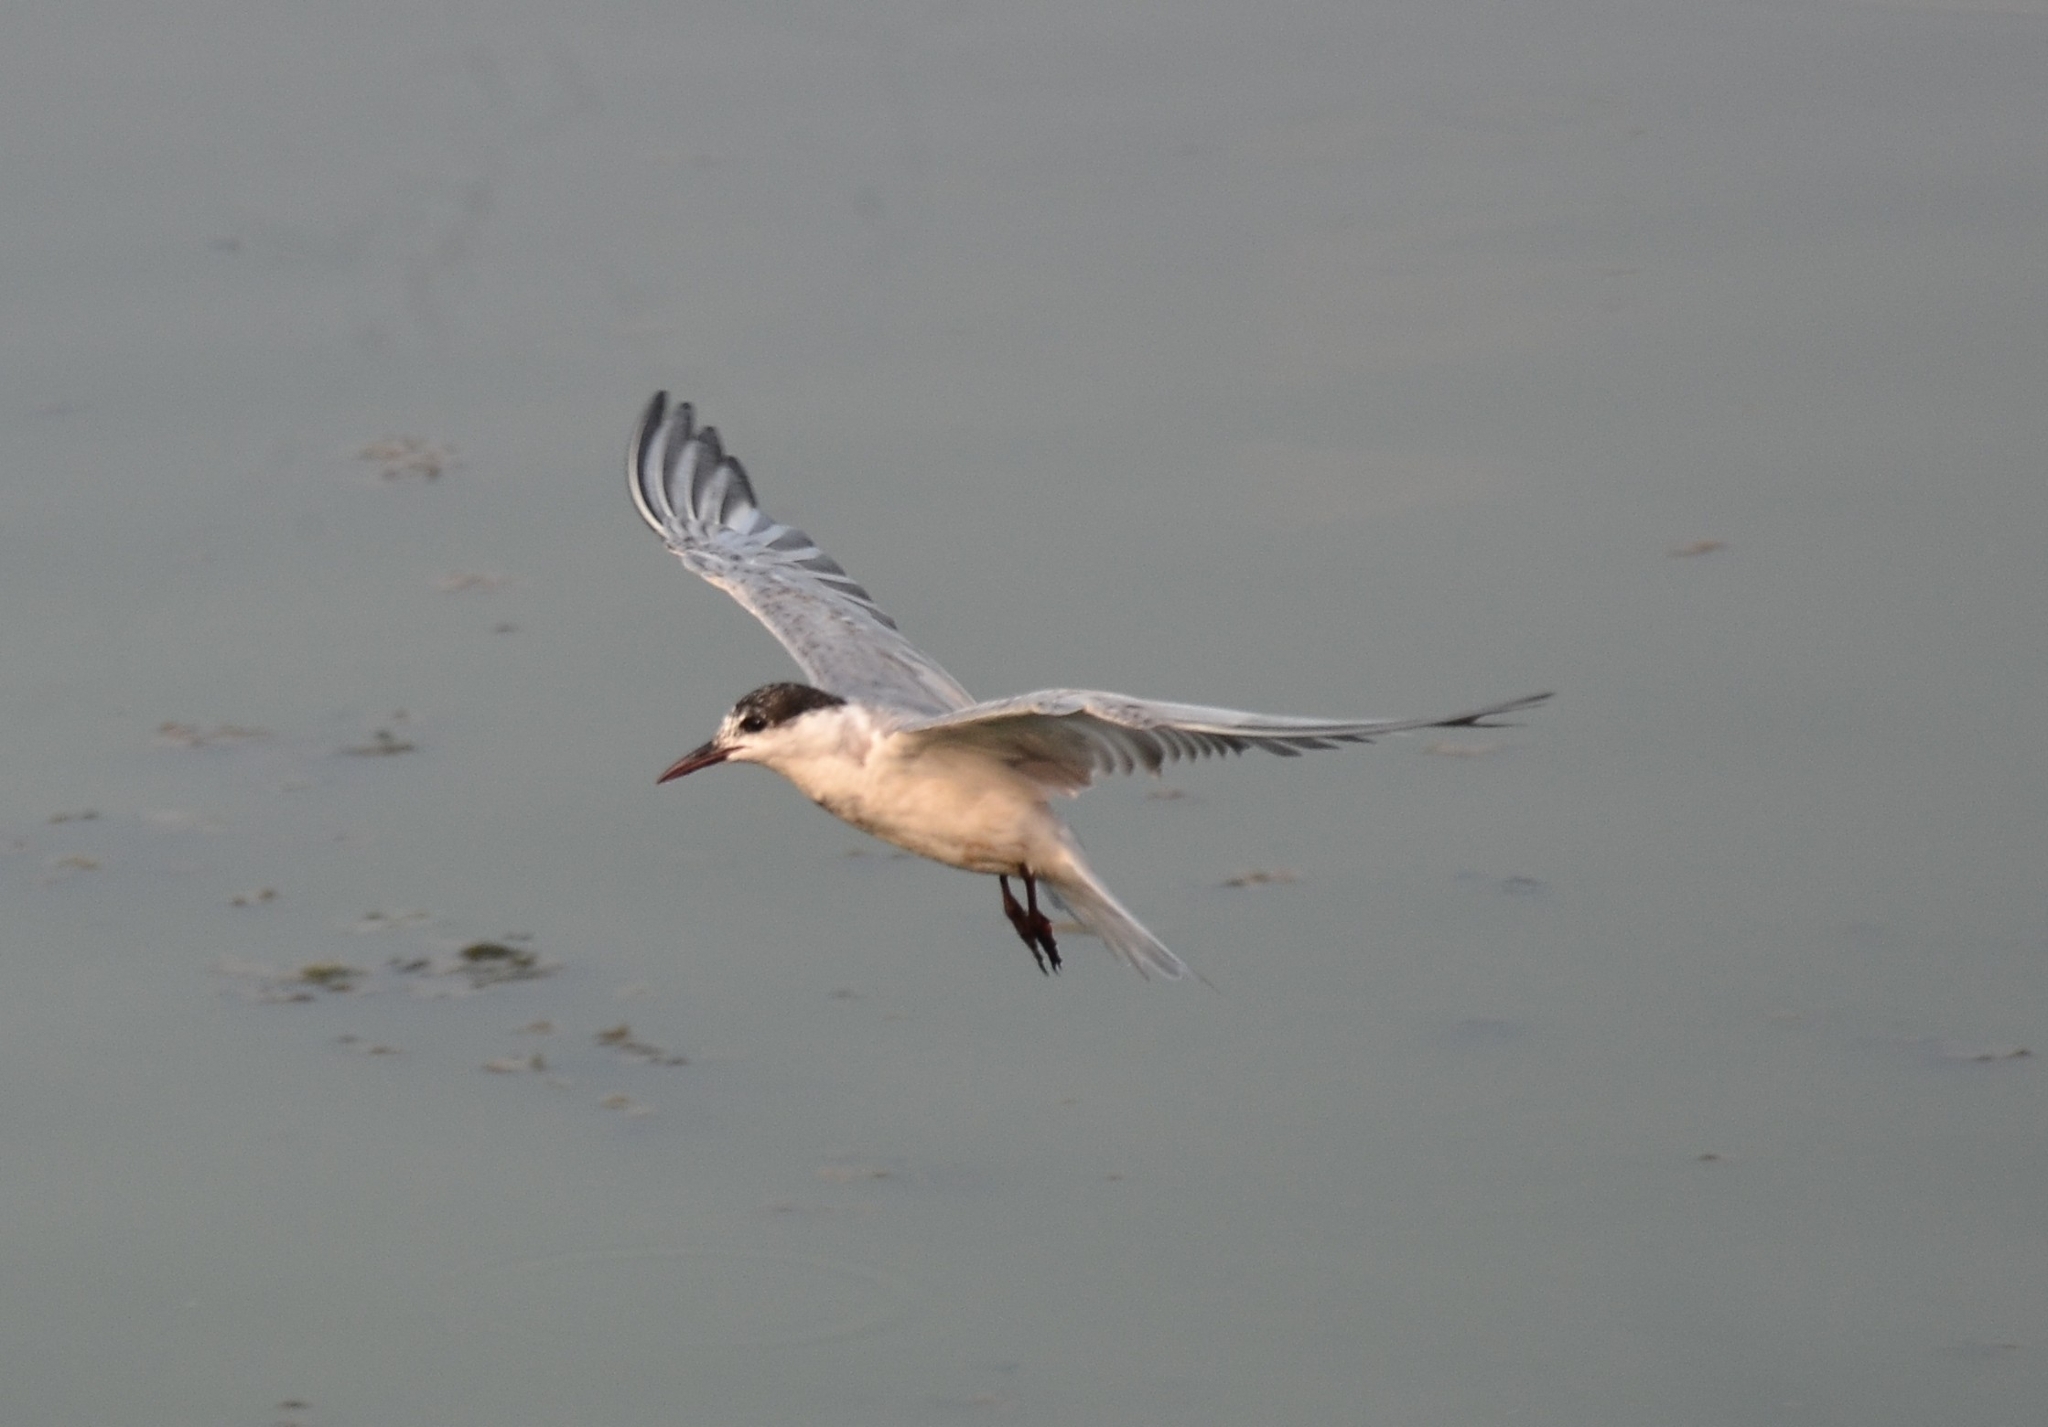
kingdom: Animalia
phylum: Chordata
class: Aves
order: Charadriiformes
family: Laridae
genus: Chlidonias
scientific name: Chlidonias hybrida
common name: Whiskered tern
